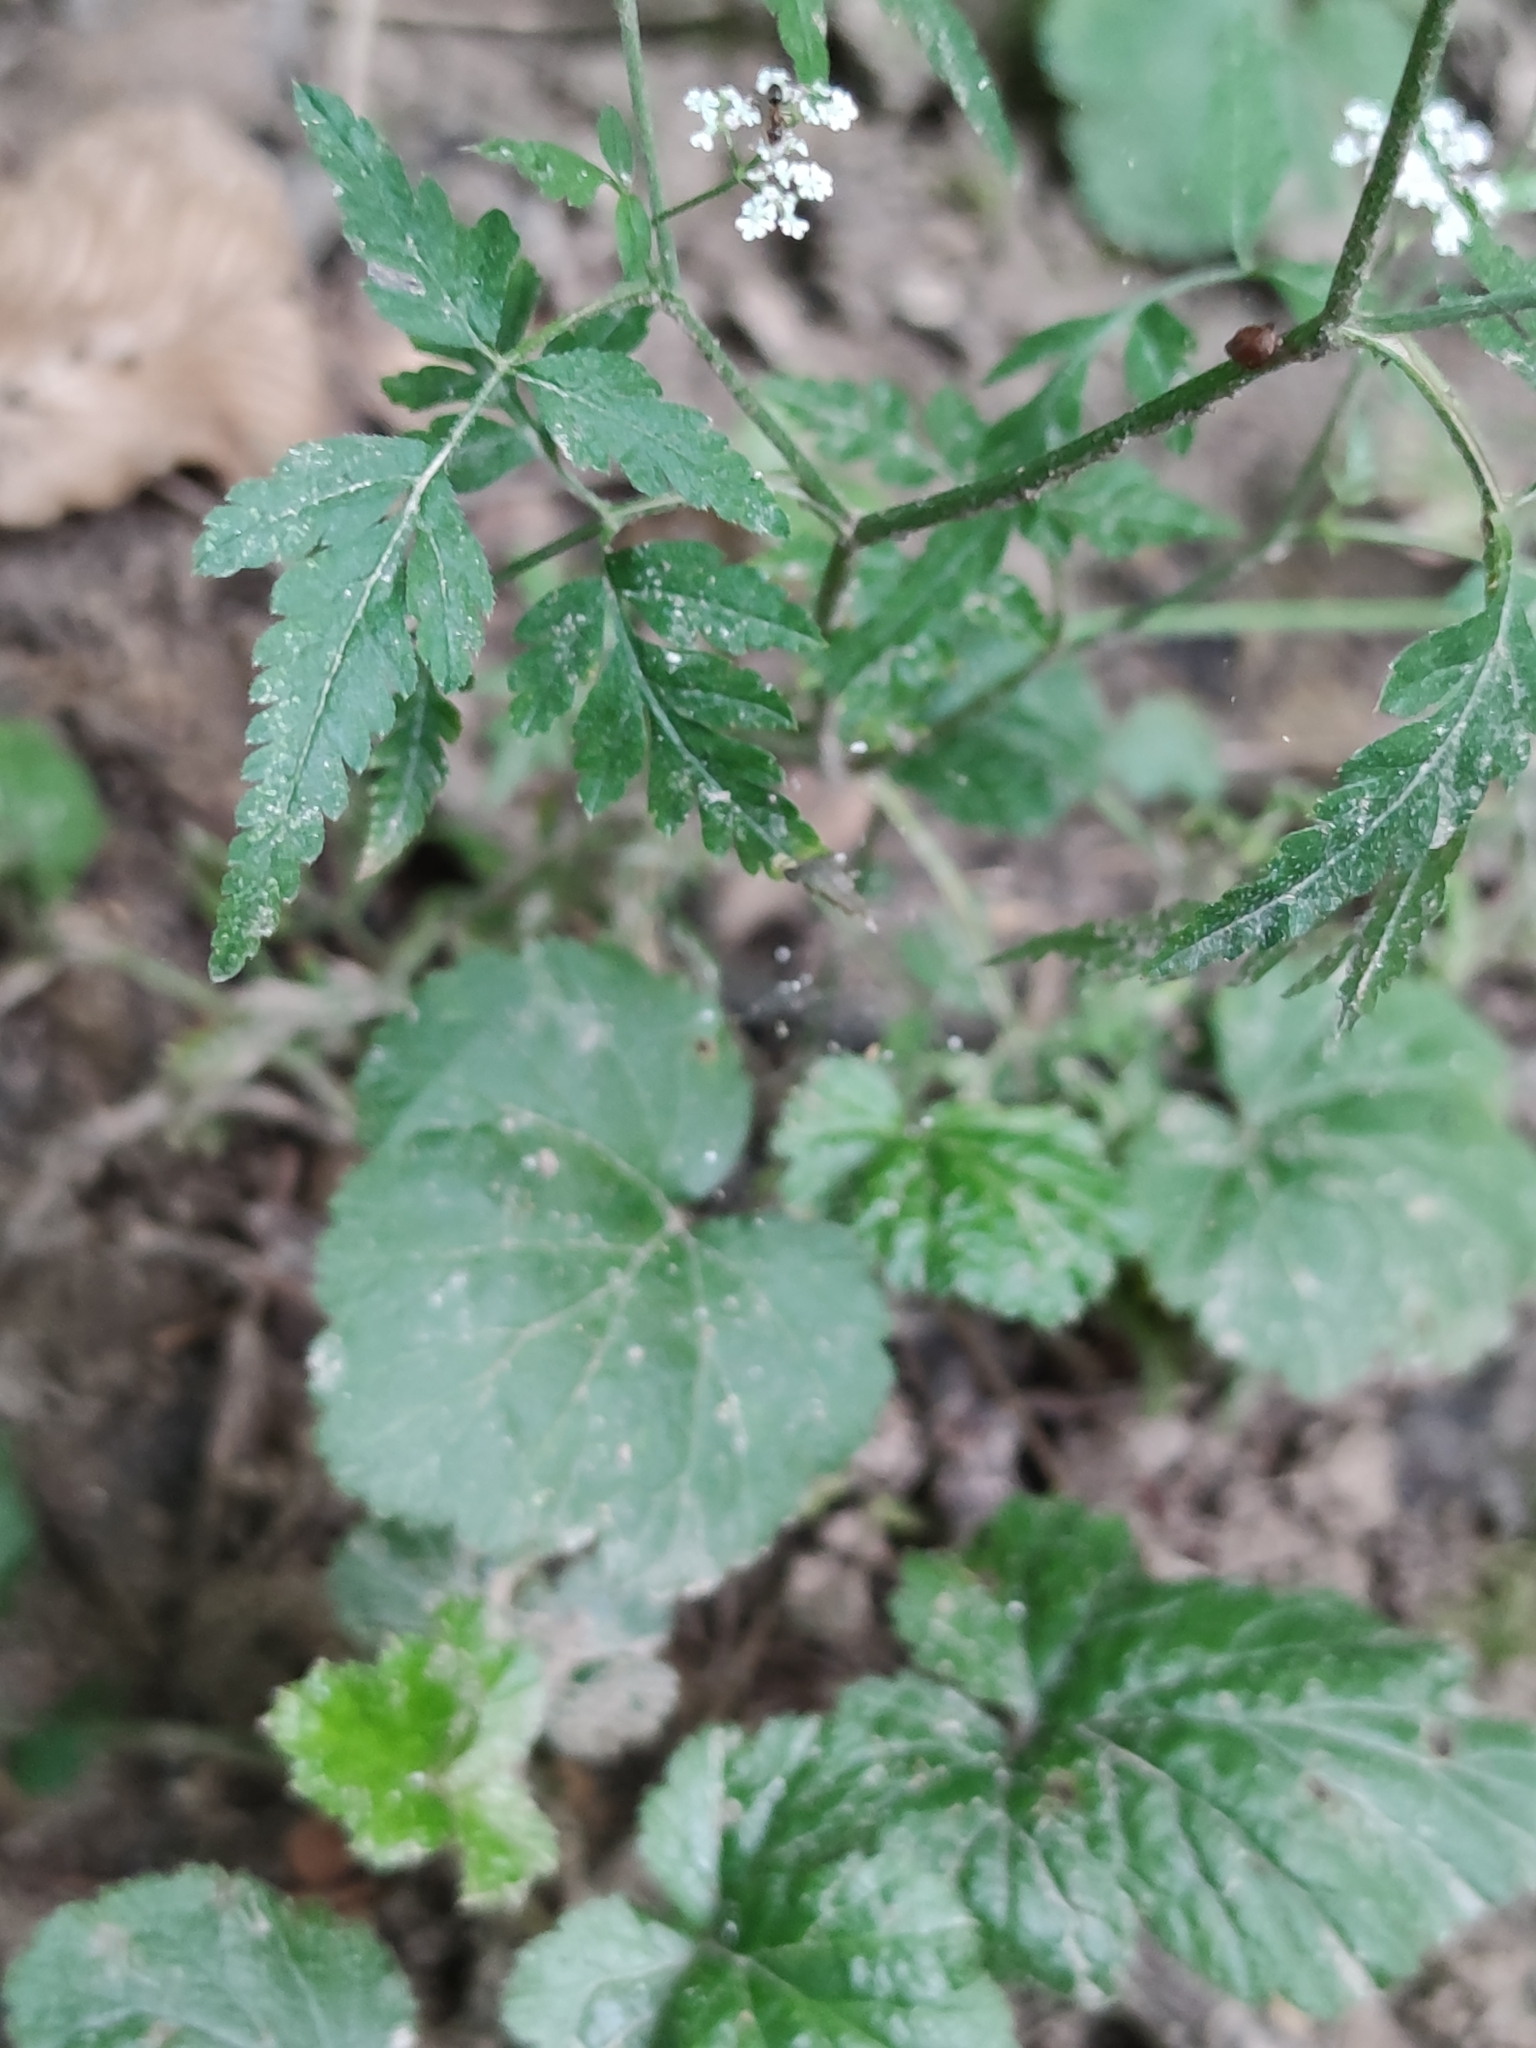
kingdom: Plantae
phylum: Tracheophyta
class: Magnoliopsida
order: Apiales
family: Apiaceae
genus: Torilis
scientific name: Torilis japonica
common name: Upright hedge-parsley
